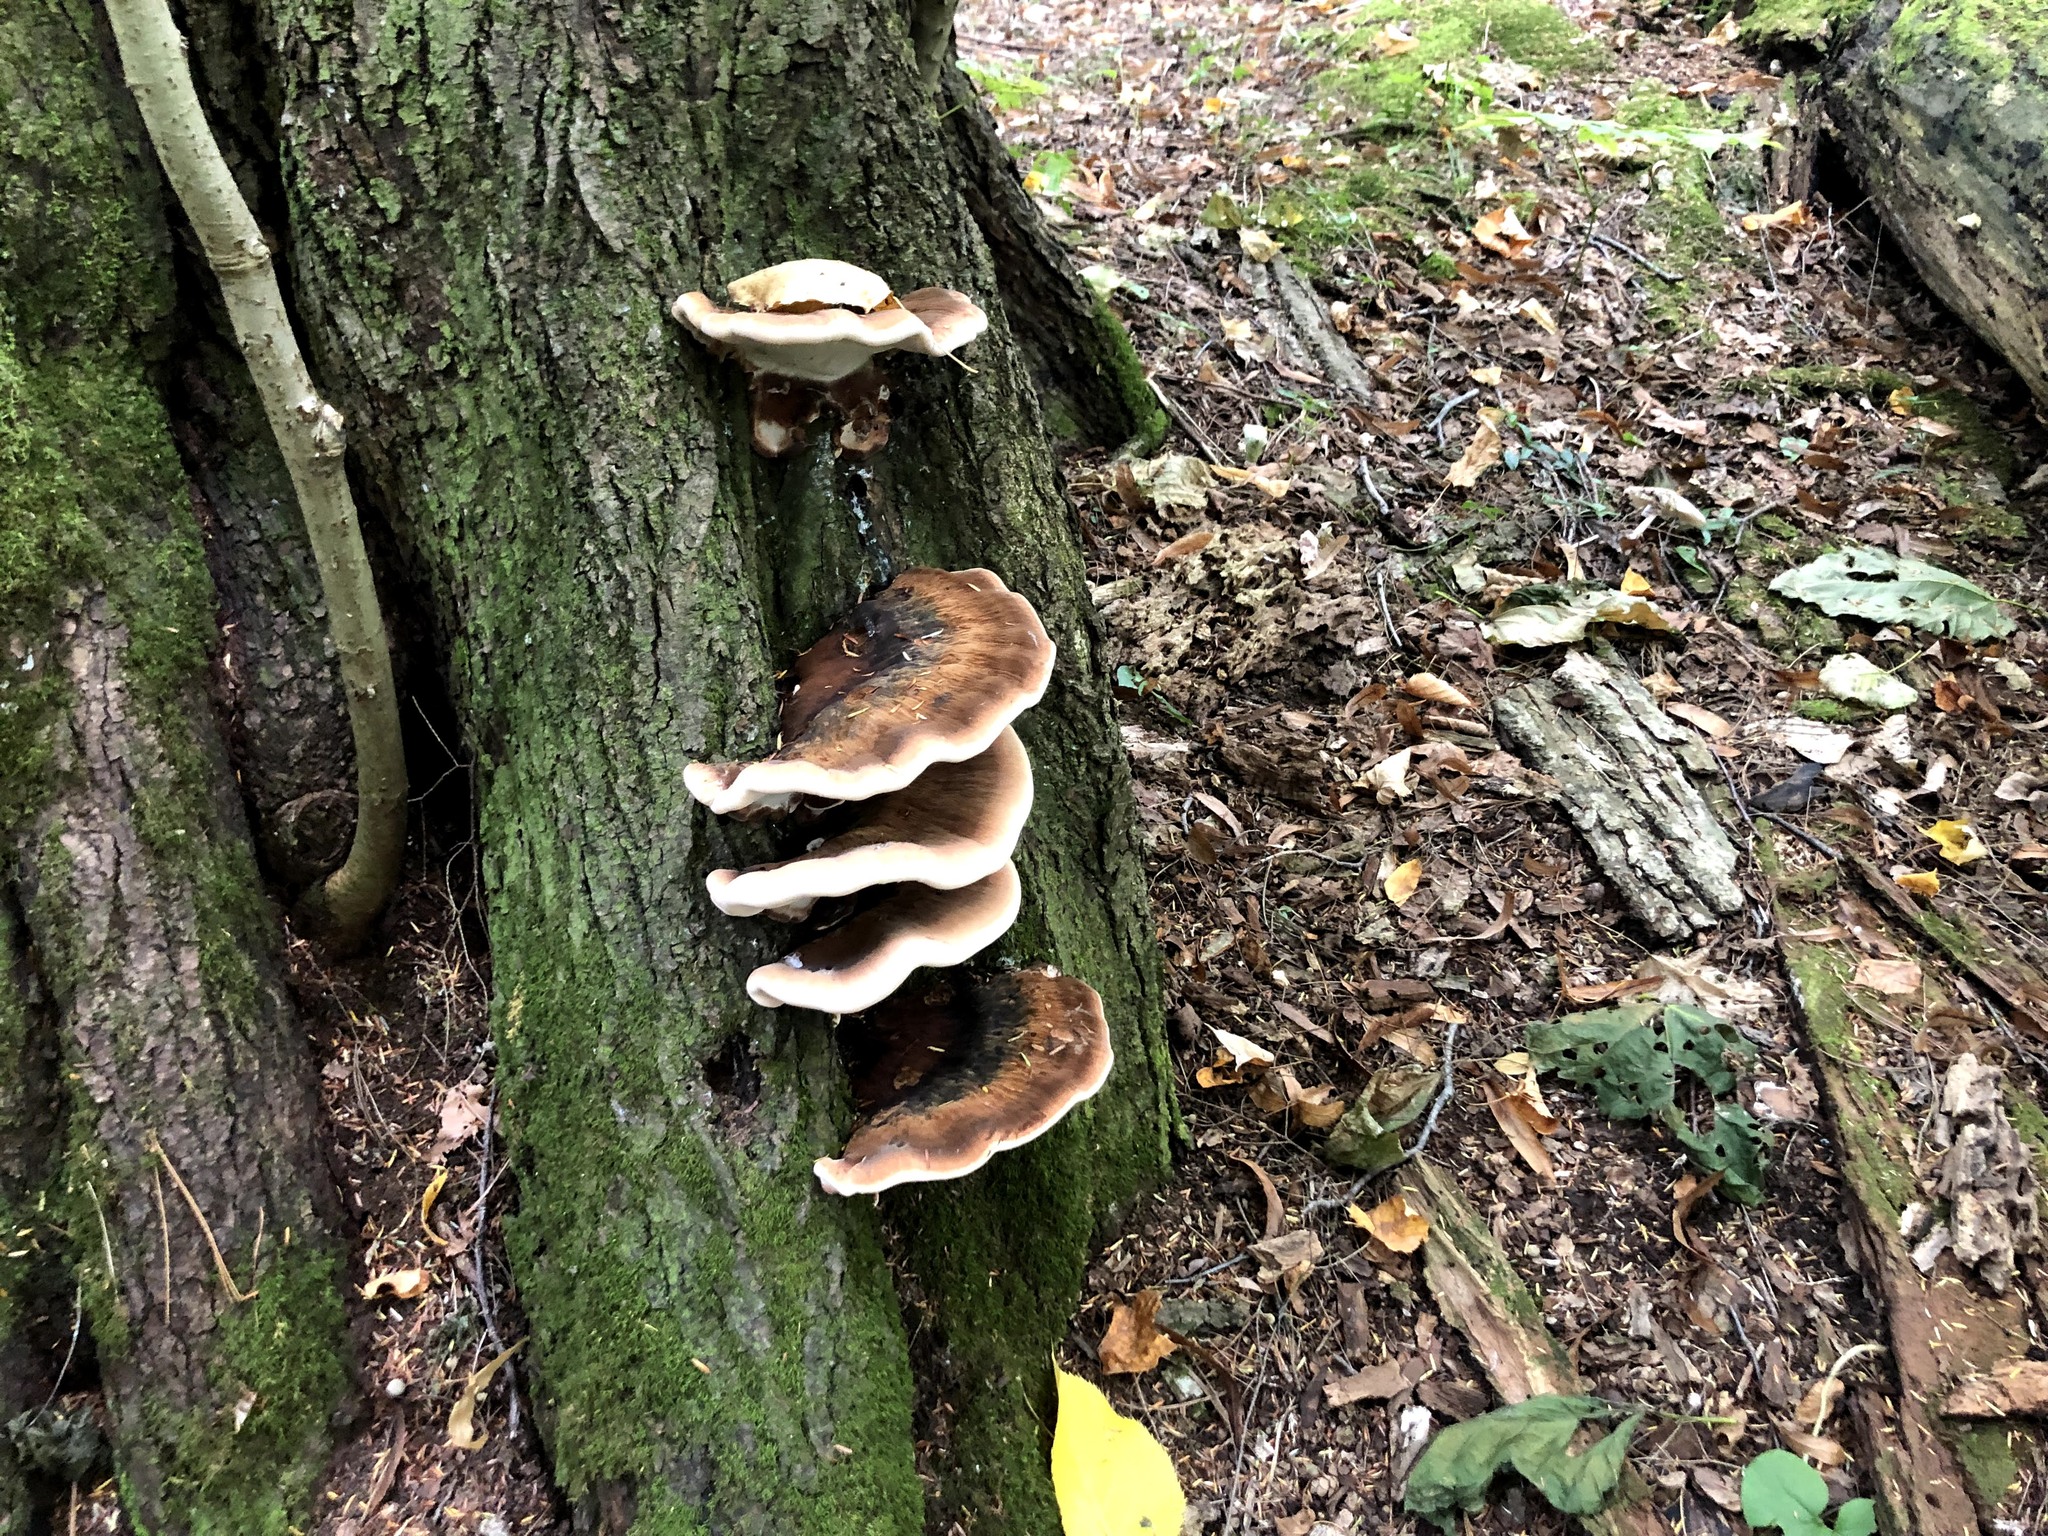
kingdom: Fungi
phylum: Basidiomycota
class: Agaricomycetes
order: Polyporales
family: Ischnodermataceae
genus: Ischnoderma
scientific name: Ischnoderma resinosum
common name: Resinous polypore
